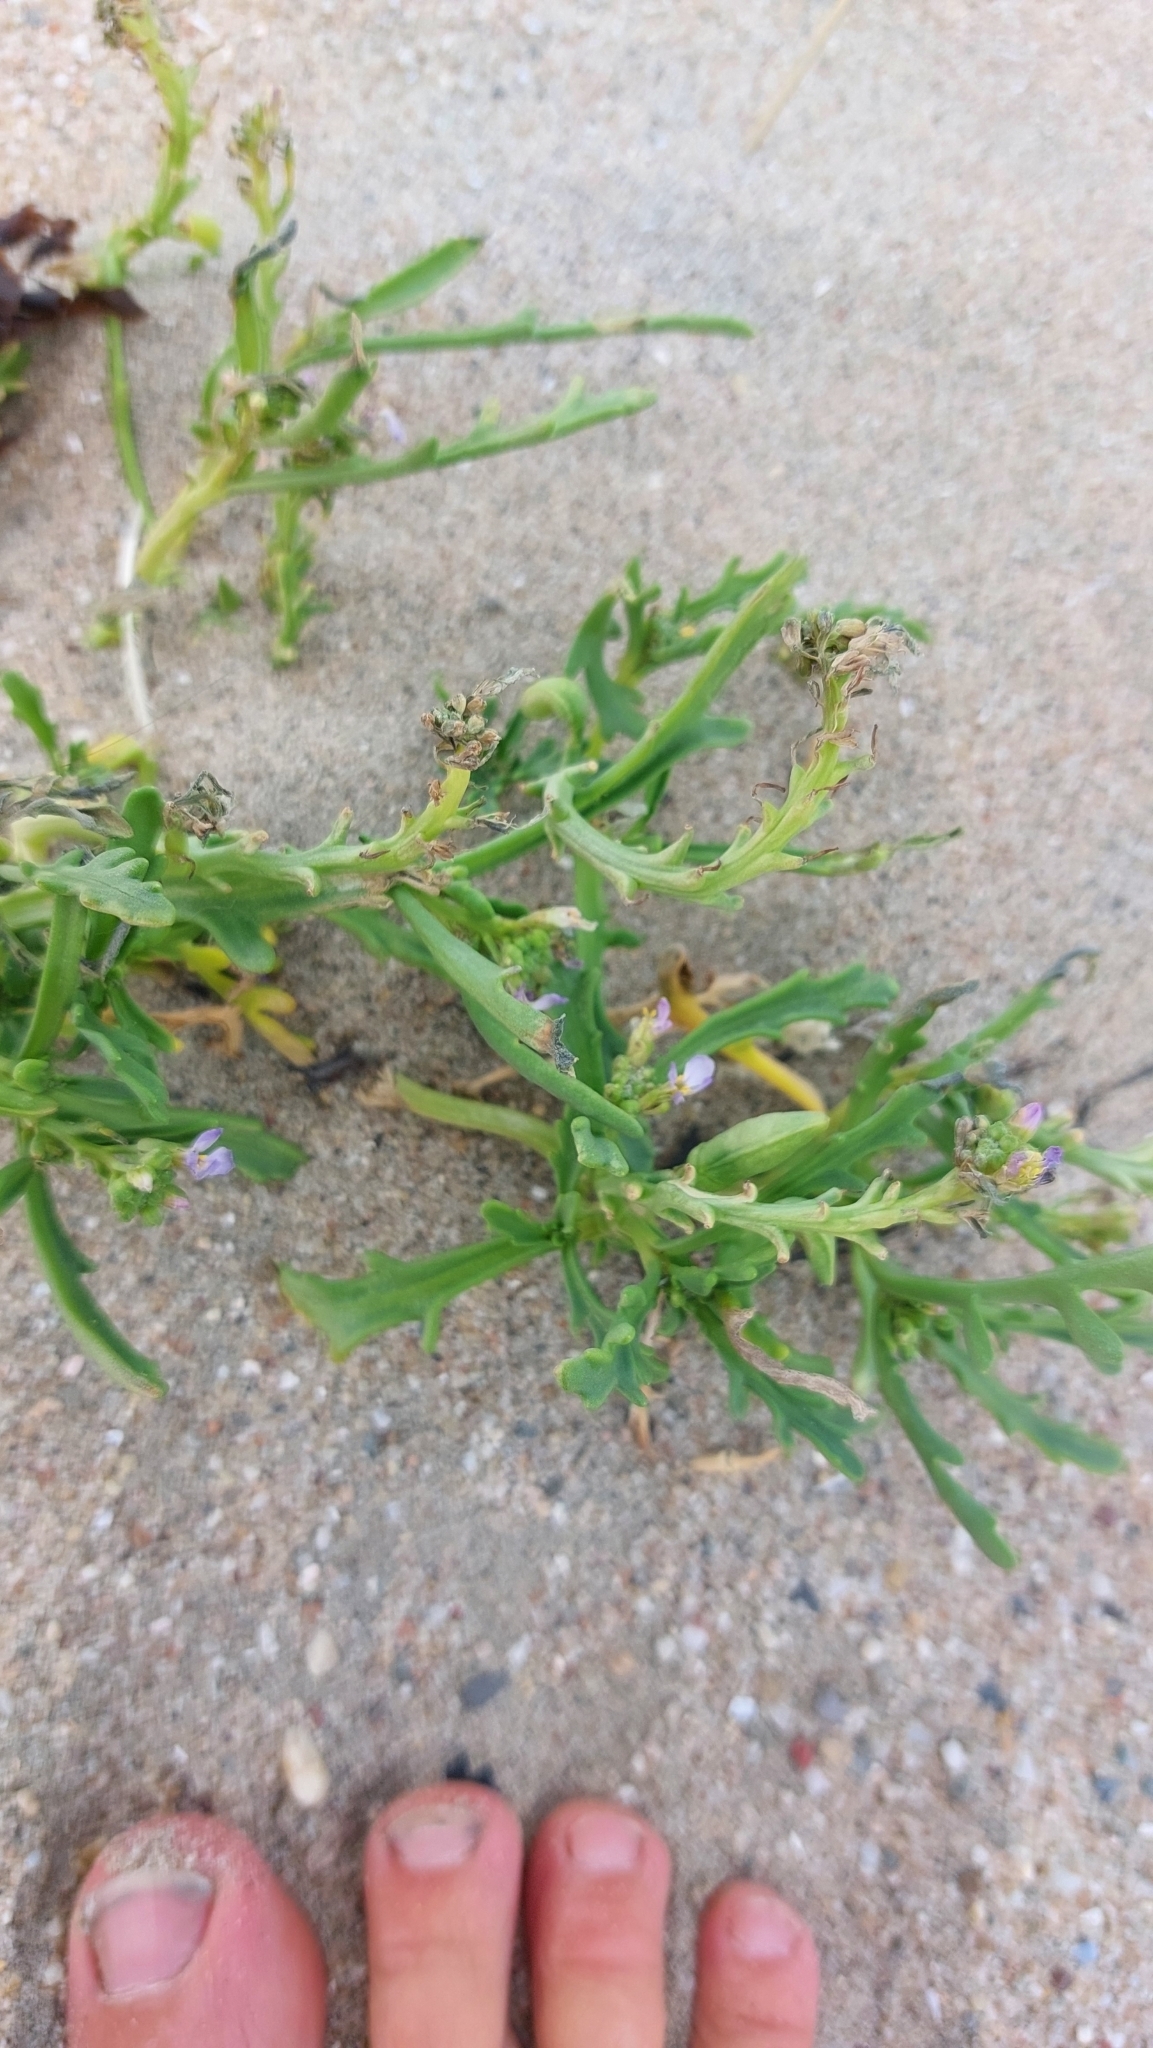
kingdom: Plantae
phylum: Tracheophyta
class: Magnoliopsida
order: Brassicales
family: Brassicaceae
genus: Cakile
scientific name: Cakile maritima
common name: Sea rocket
